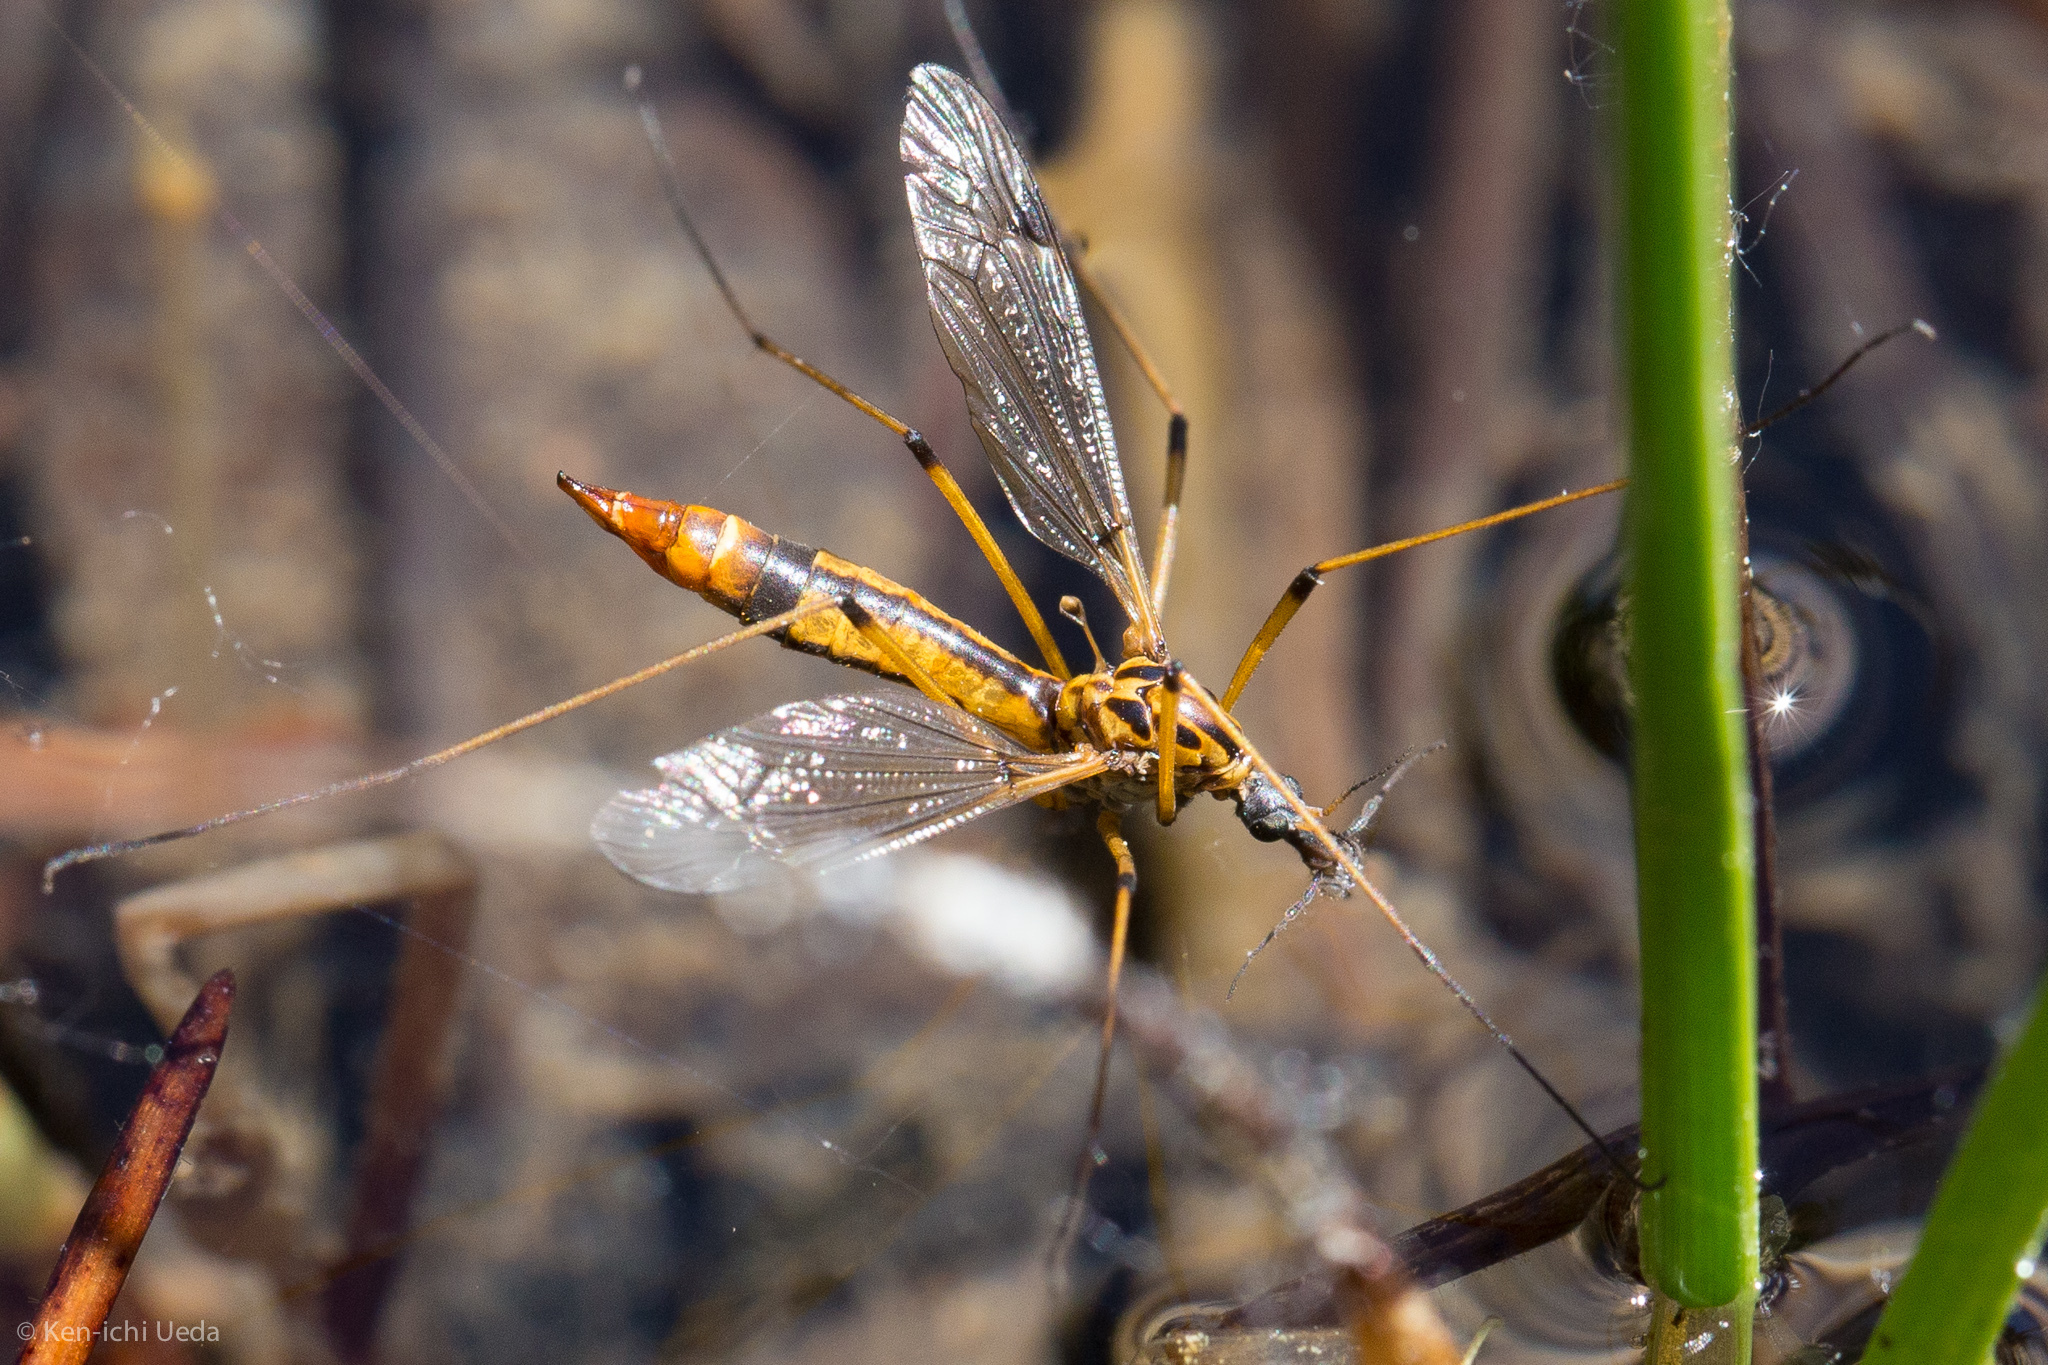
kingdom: Animalia
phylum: Arthropoda
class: Insecta
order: Diptera
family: Tipulidae
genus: Tipula
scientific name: Tipula californica
